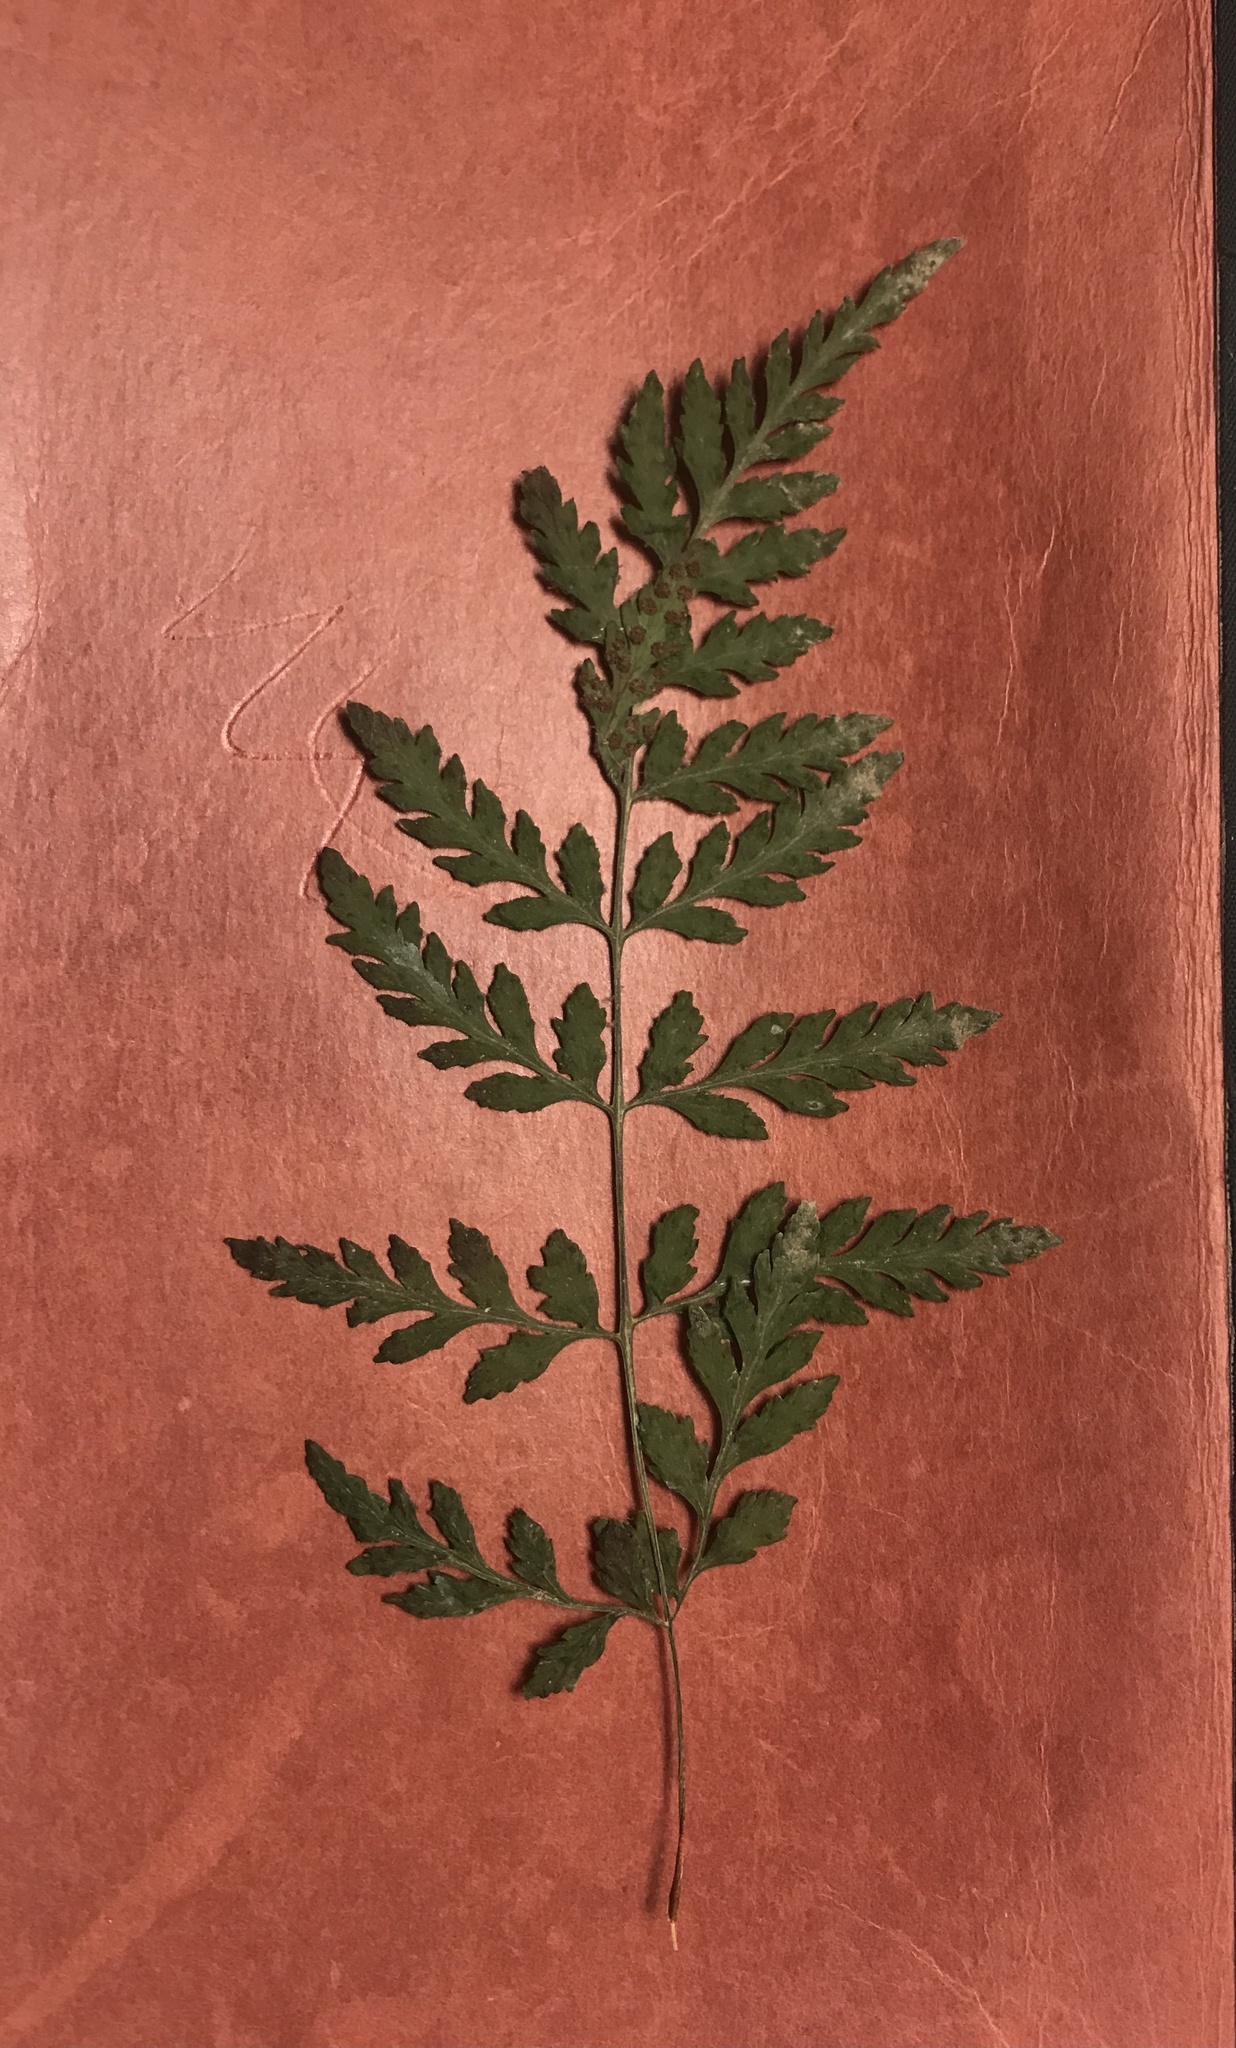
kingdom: Plantae
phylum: Tracheophyta
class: Polypodiopsida
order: Polypodiales
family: Cystopteridaceae
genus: Cystopteris
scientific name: Cystopteris tenuis
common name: Mackay's brittle fern
